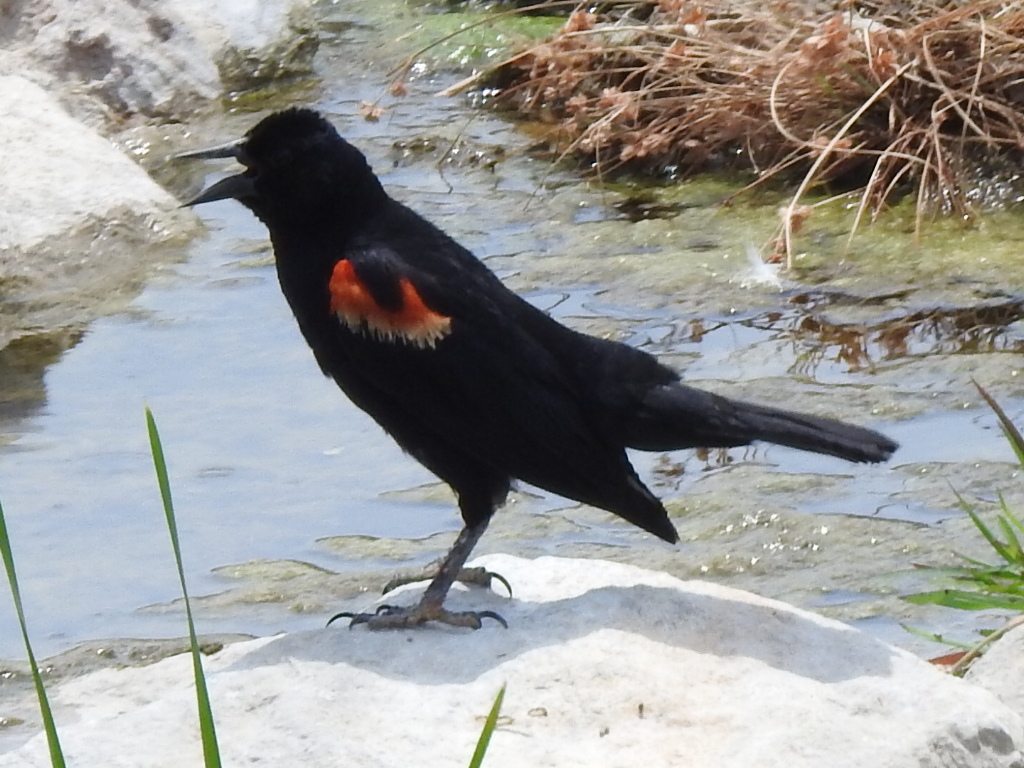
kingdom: Animalia
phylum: Chordata
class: Aves
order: Passeriformes
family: Icteridae
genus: Agelaius
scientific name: Agelaius phoeniceus
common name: Red-winged blackbird
